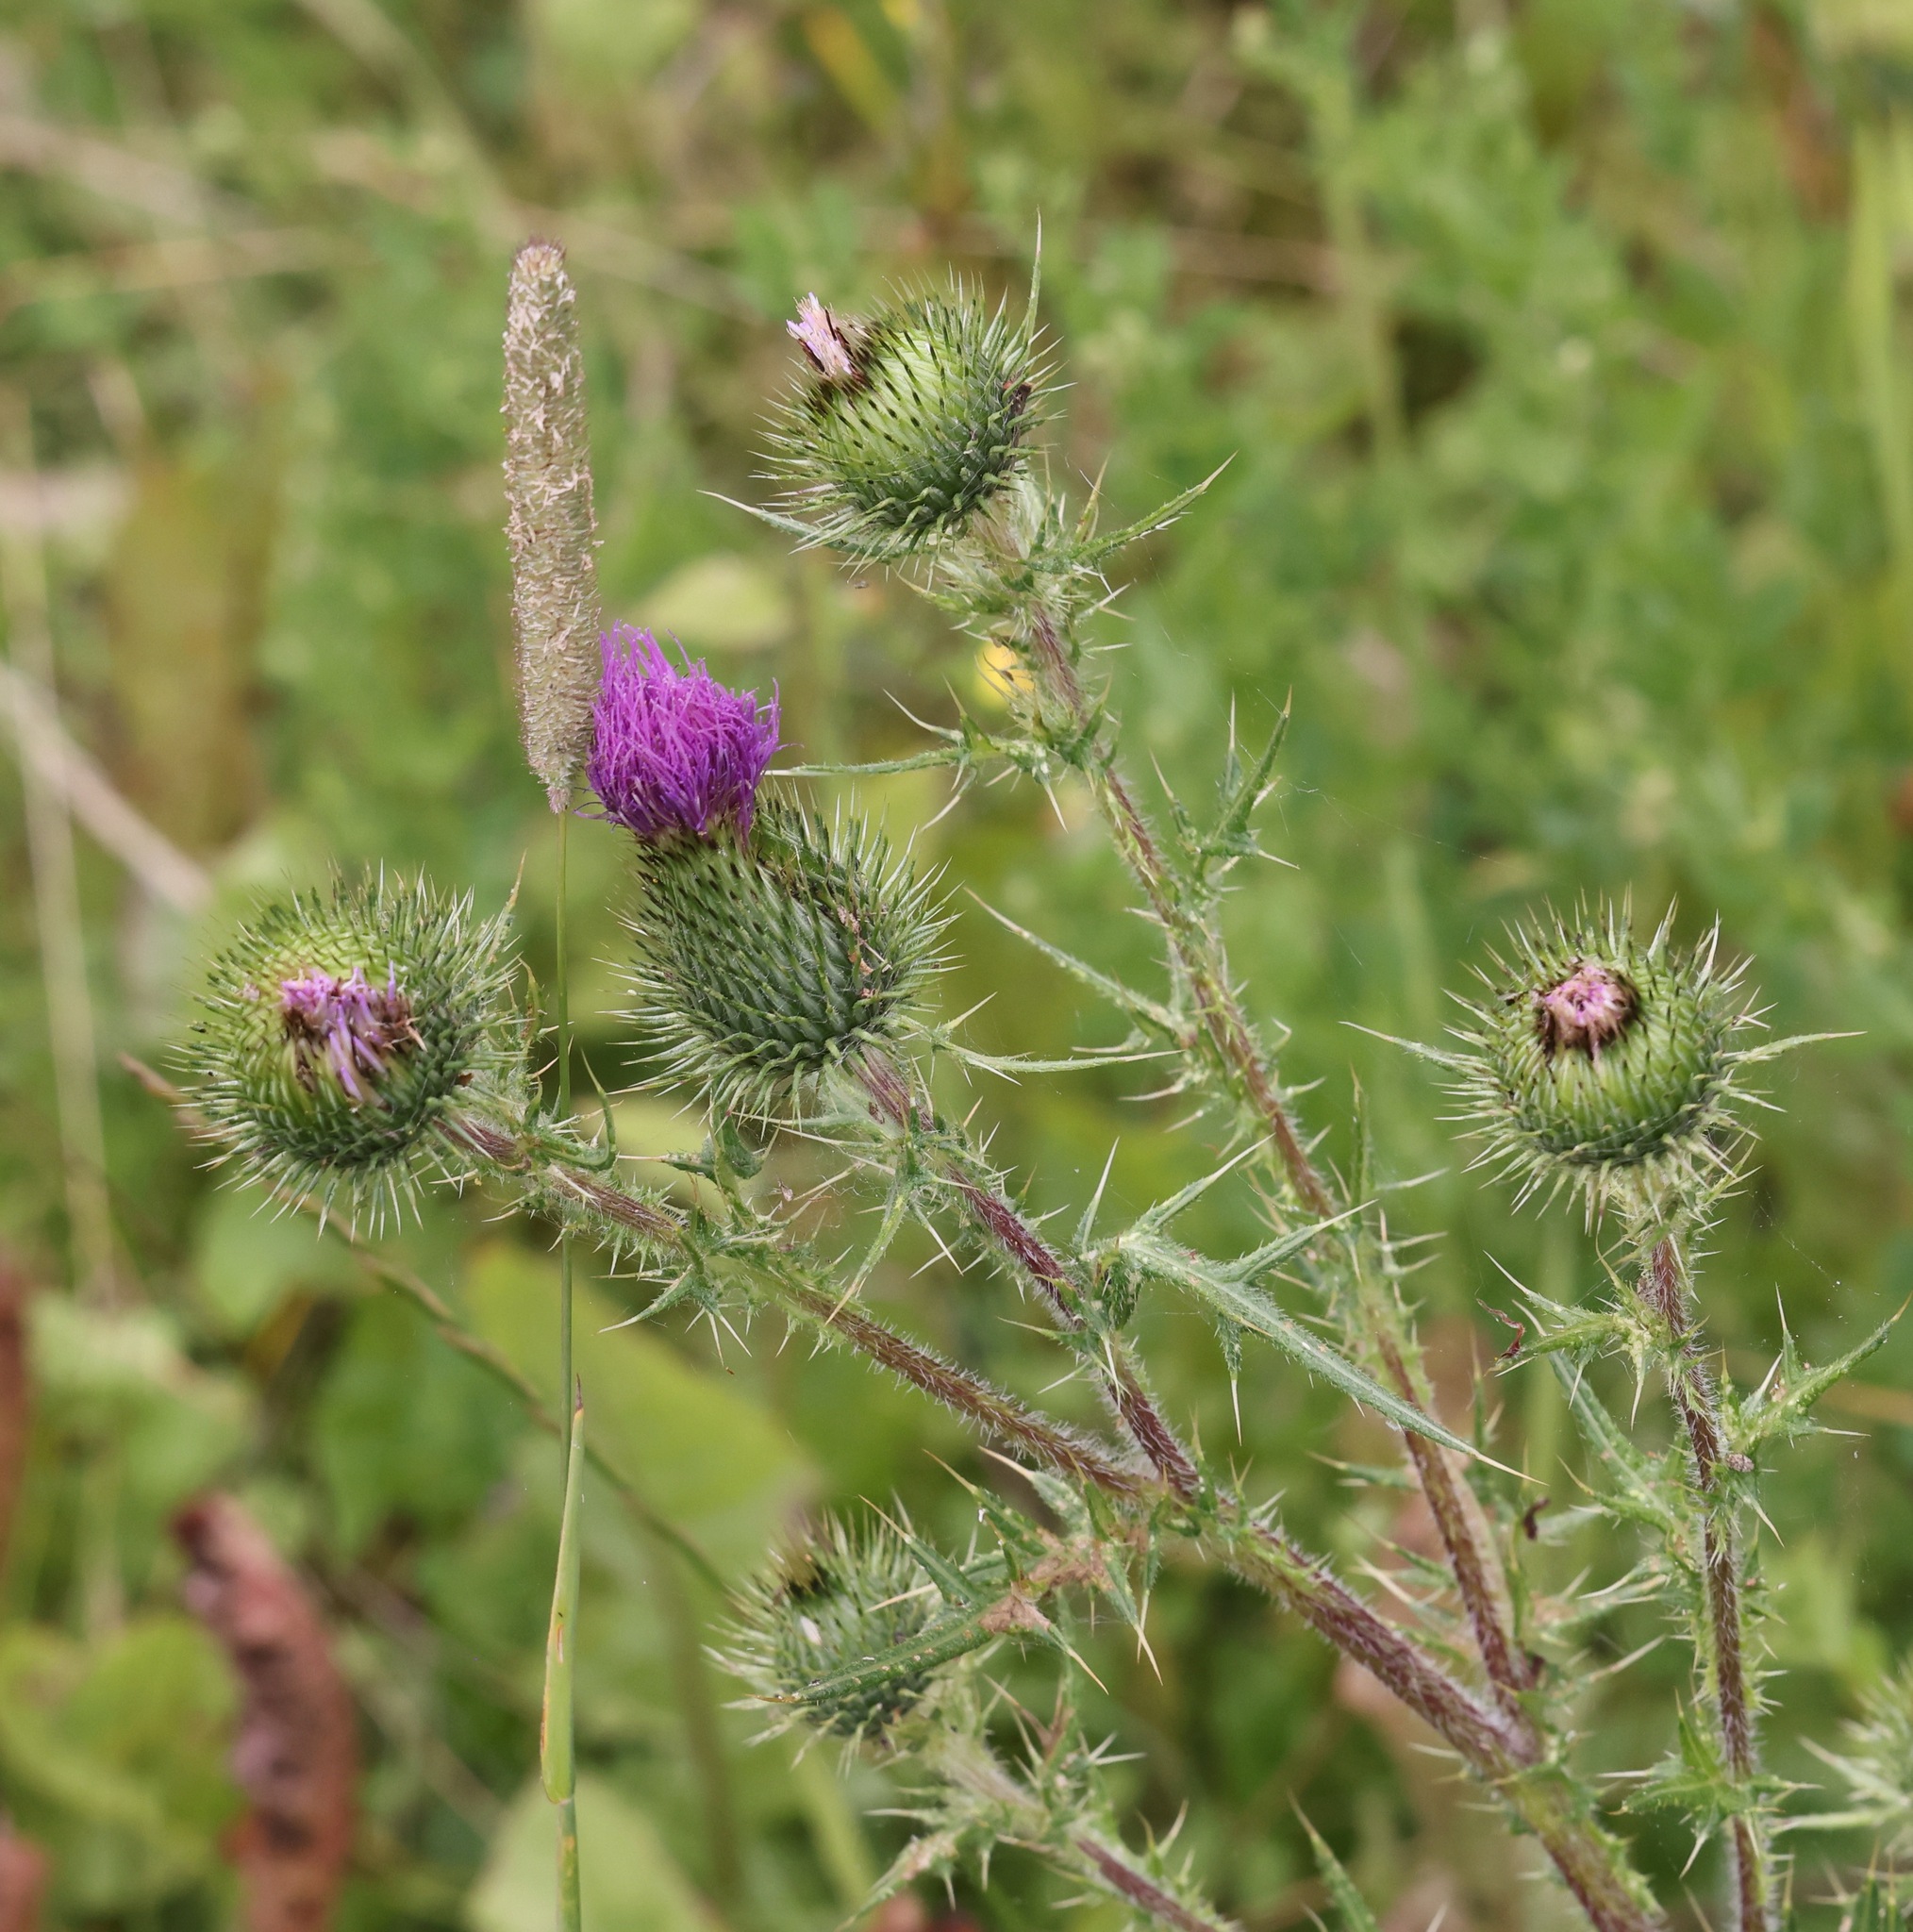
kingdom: Plantae
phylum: Tracheophyta
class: Magnoliopsida
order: Asterales
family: Asteraceae
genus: Cirsium
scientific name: Cirsium vulgare
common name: Bull thistle
